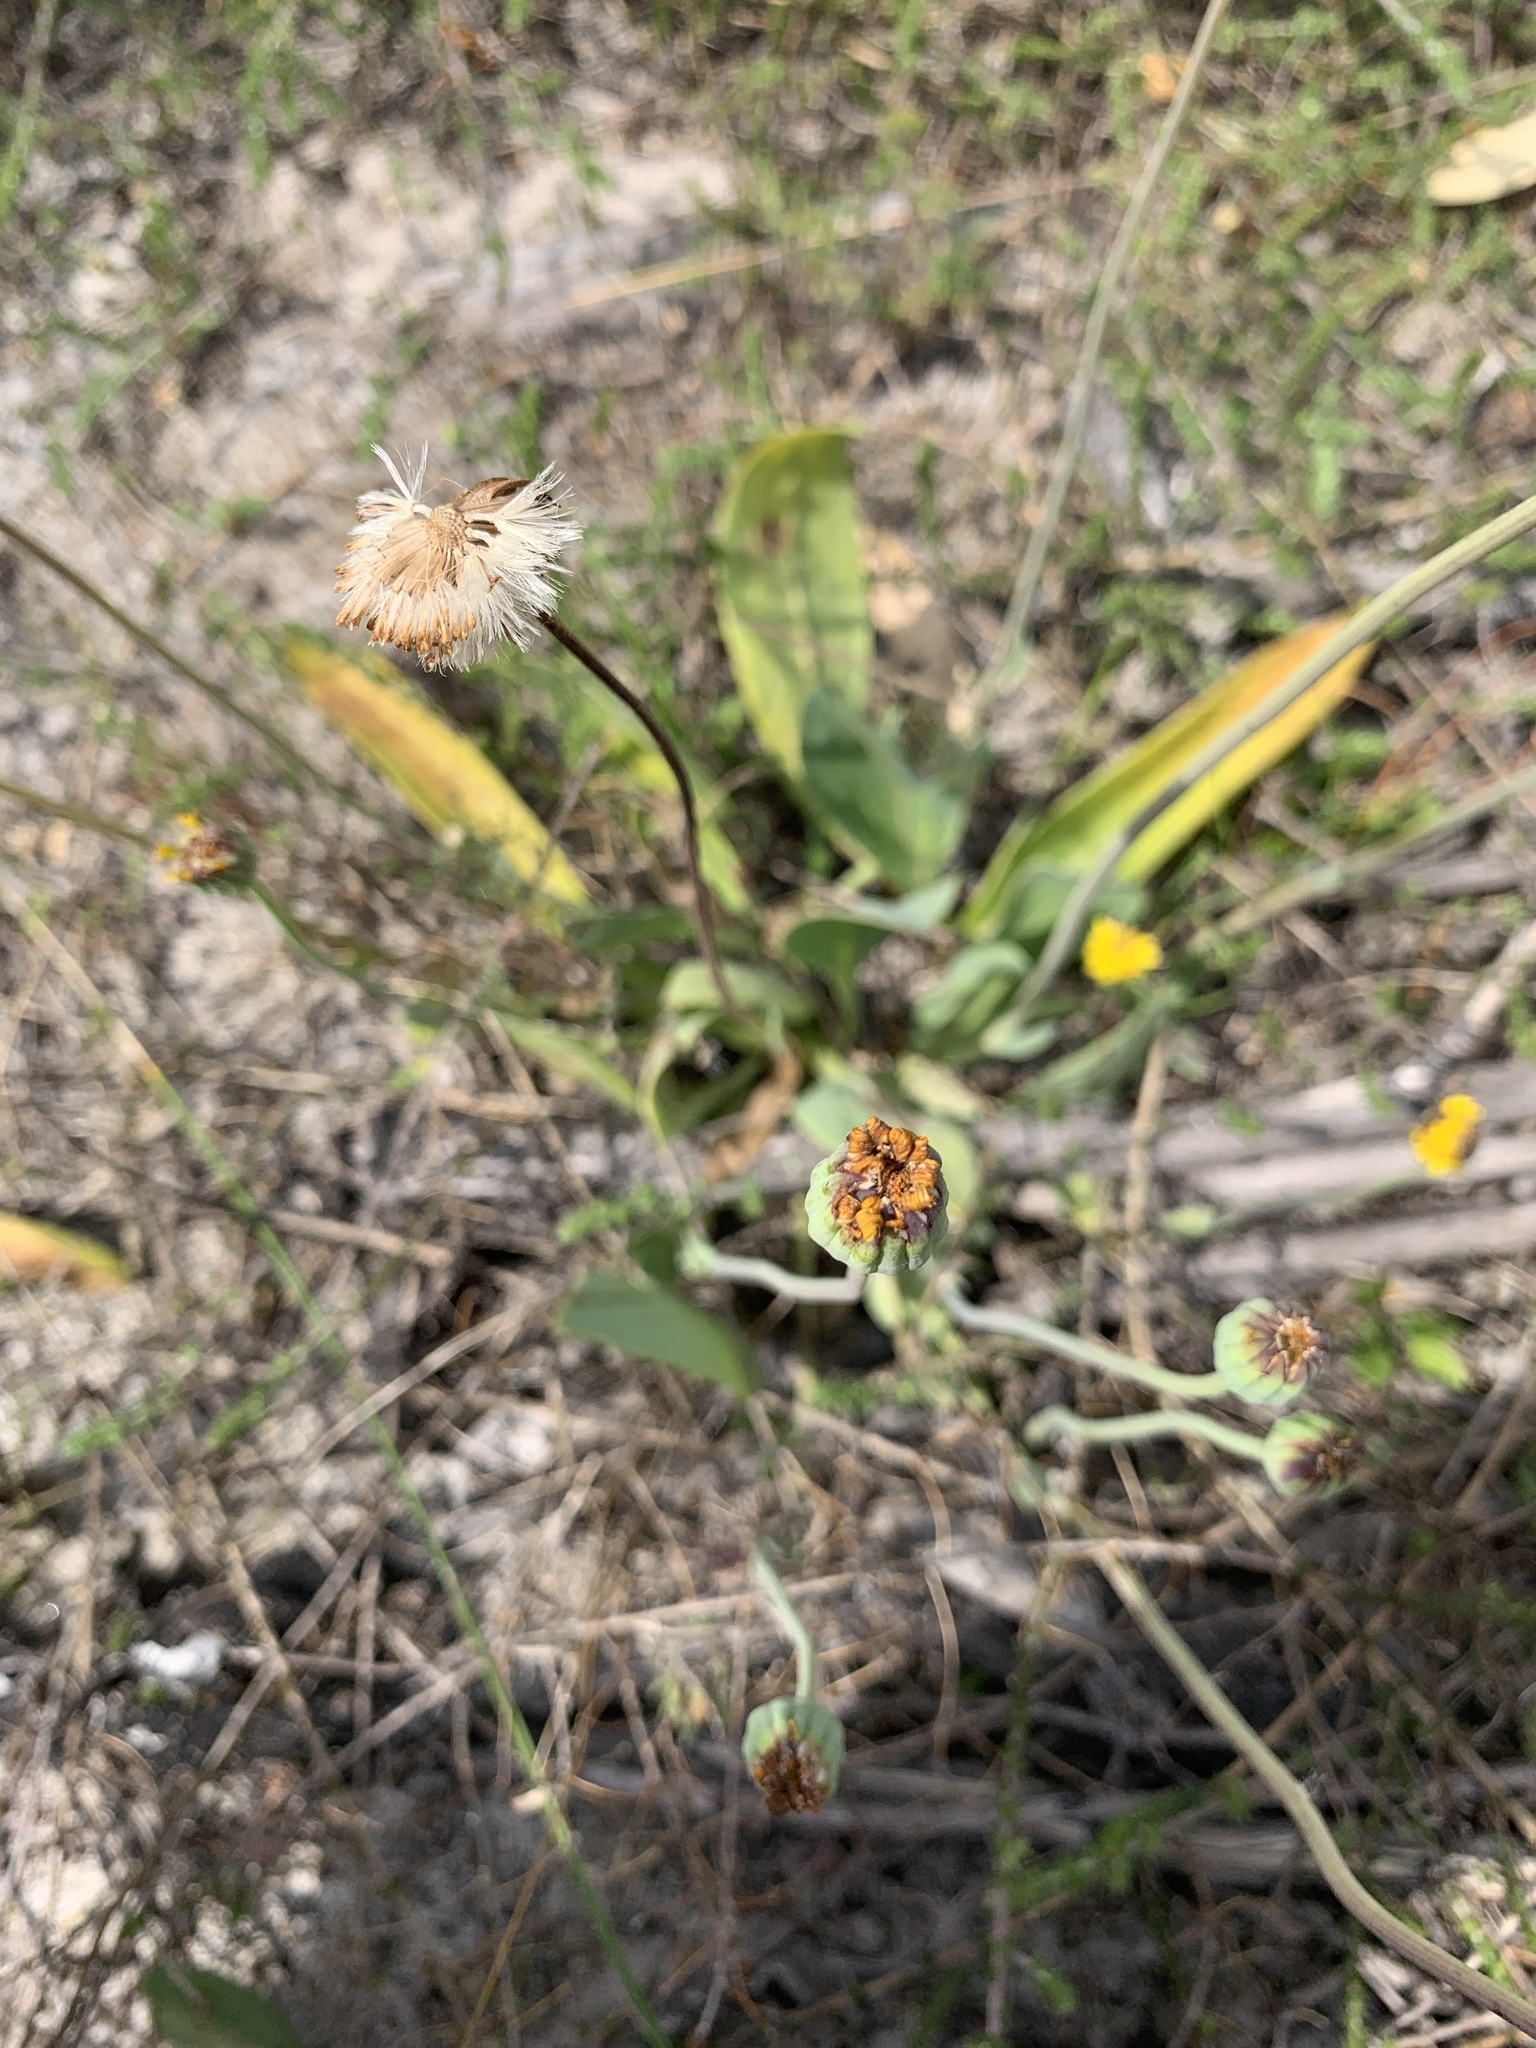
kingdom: Plantae
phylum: Tracheophyta
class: Magnoliopsida
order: Asterales
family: Asteraceae
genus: Othonna
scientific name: Othonna bulbosa
